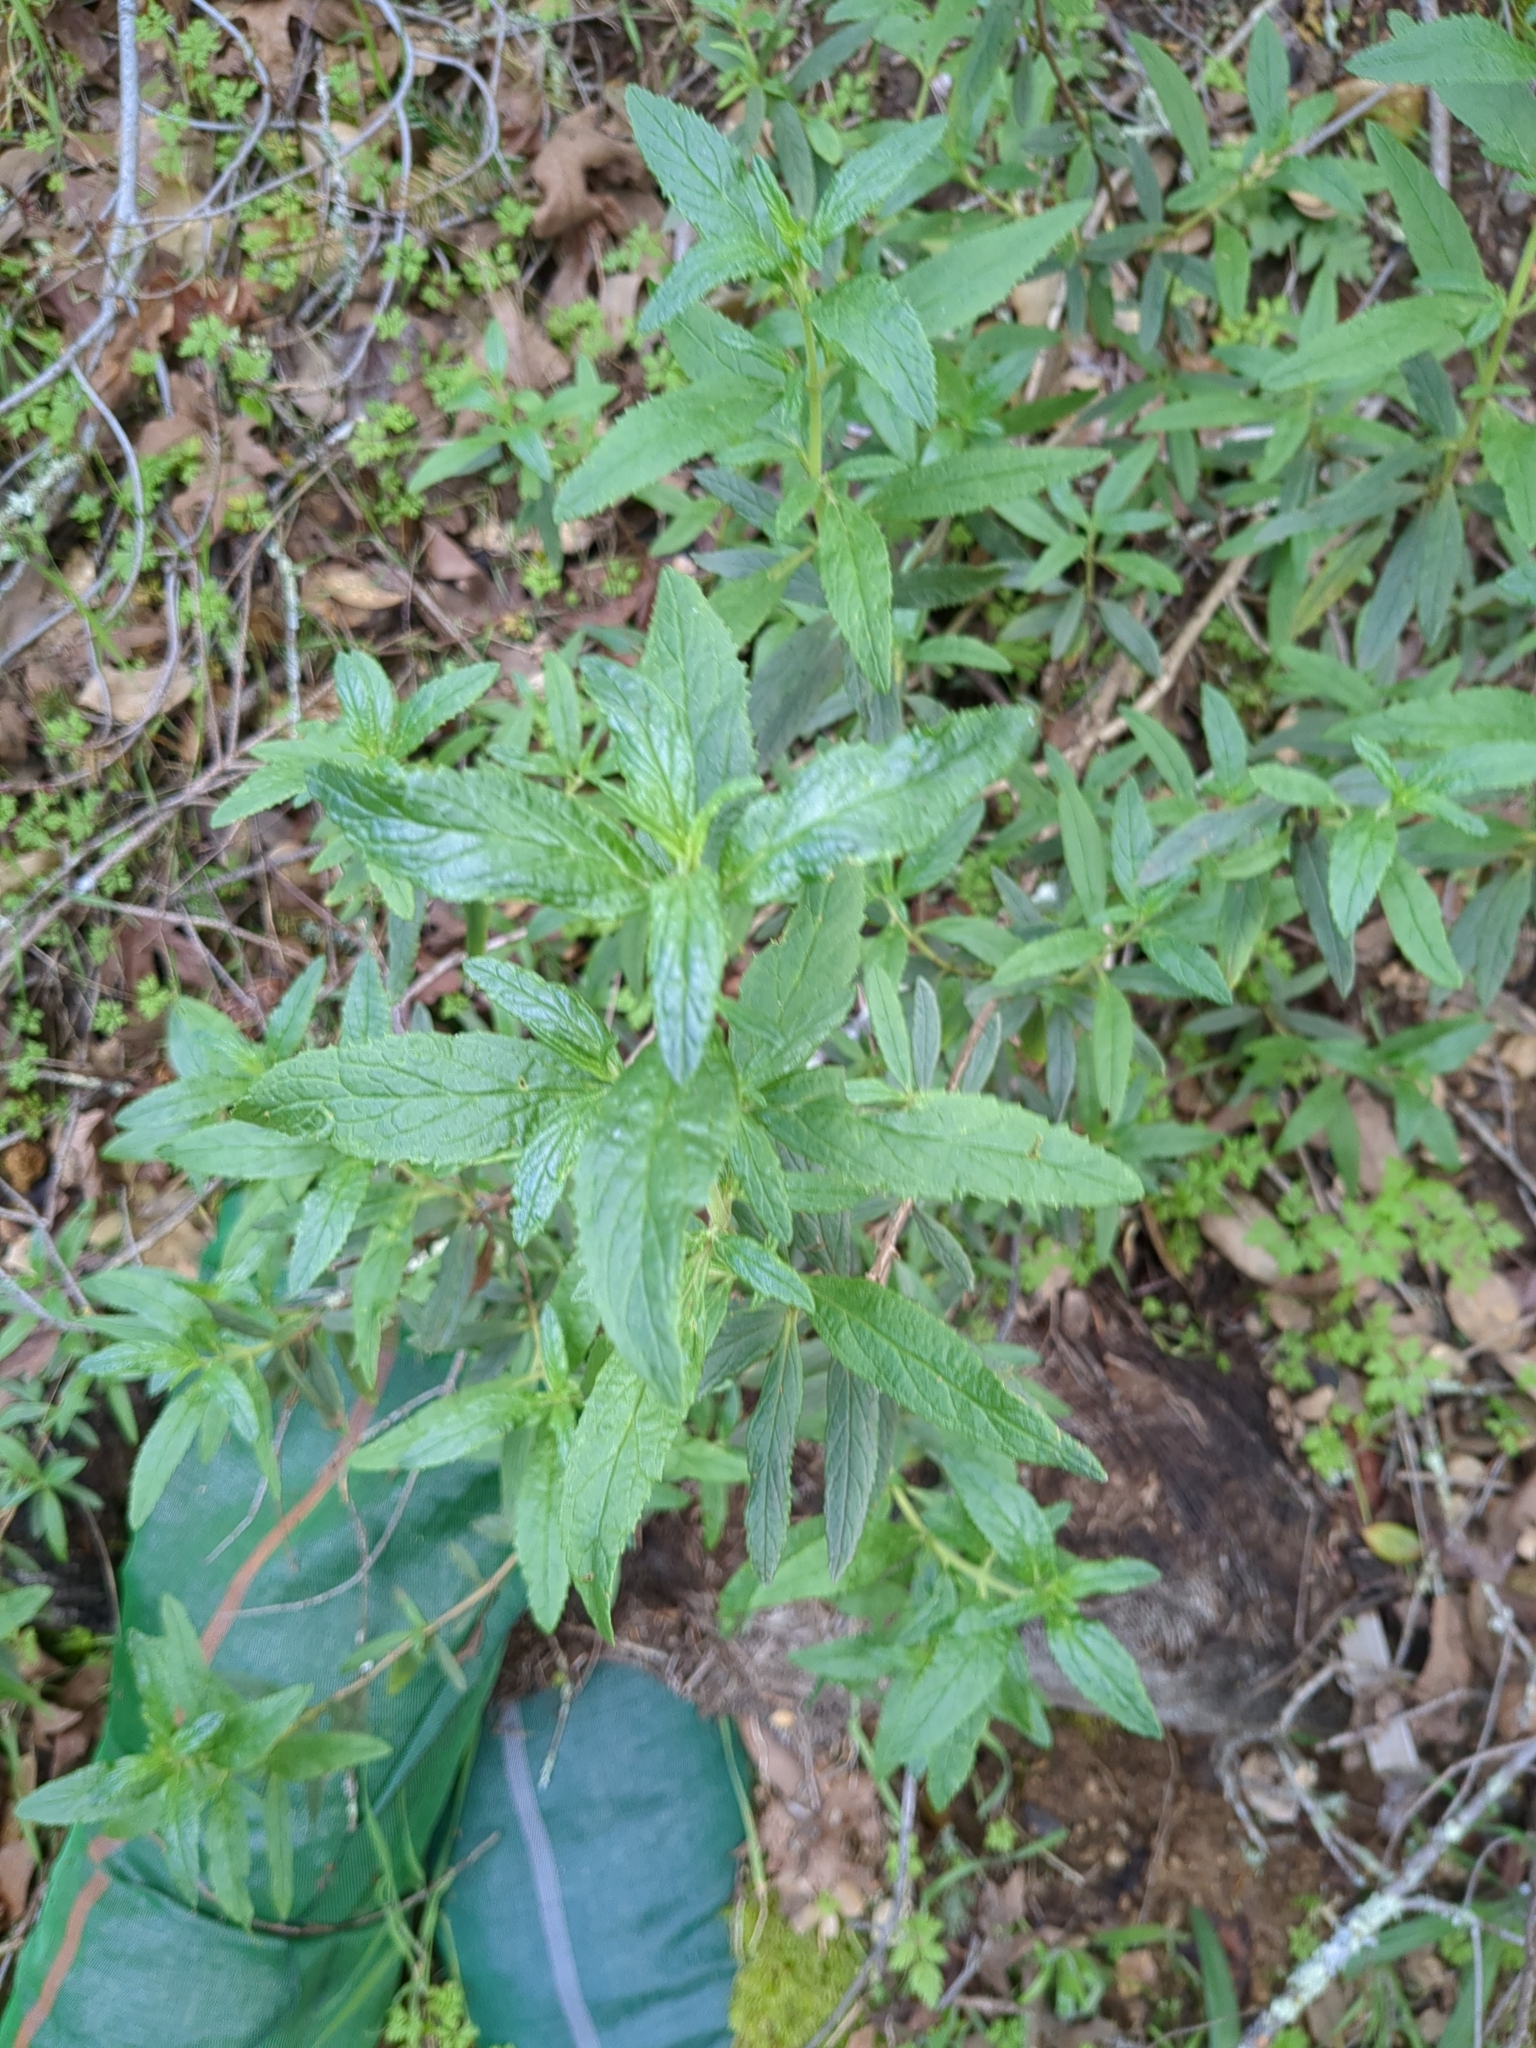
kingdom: Plantae
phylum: Tracheophyta
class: Magnoliopsida
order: Lamiales
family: Phrymaceae
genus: Diplacus
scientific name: Diplacus aurantiacus
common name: Bush monkey-flower
